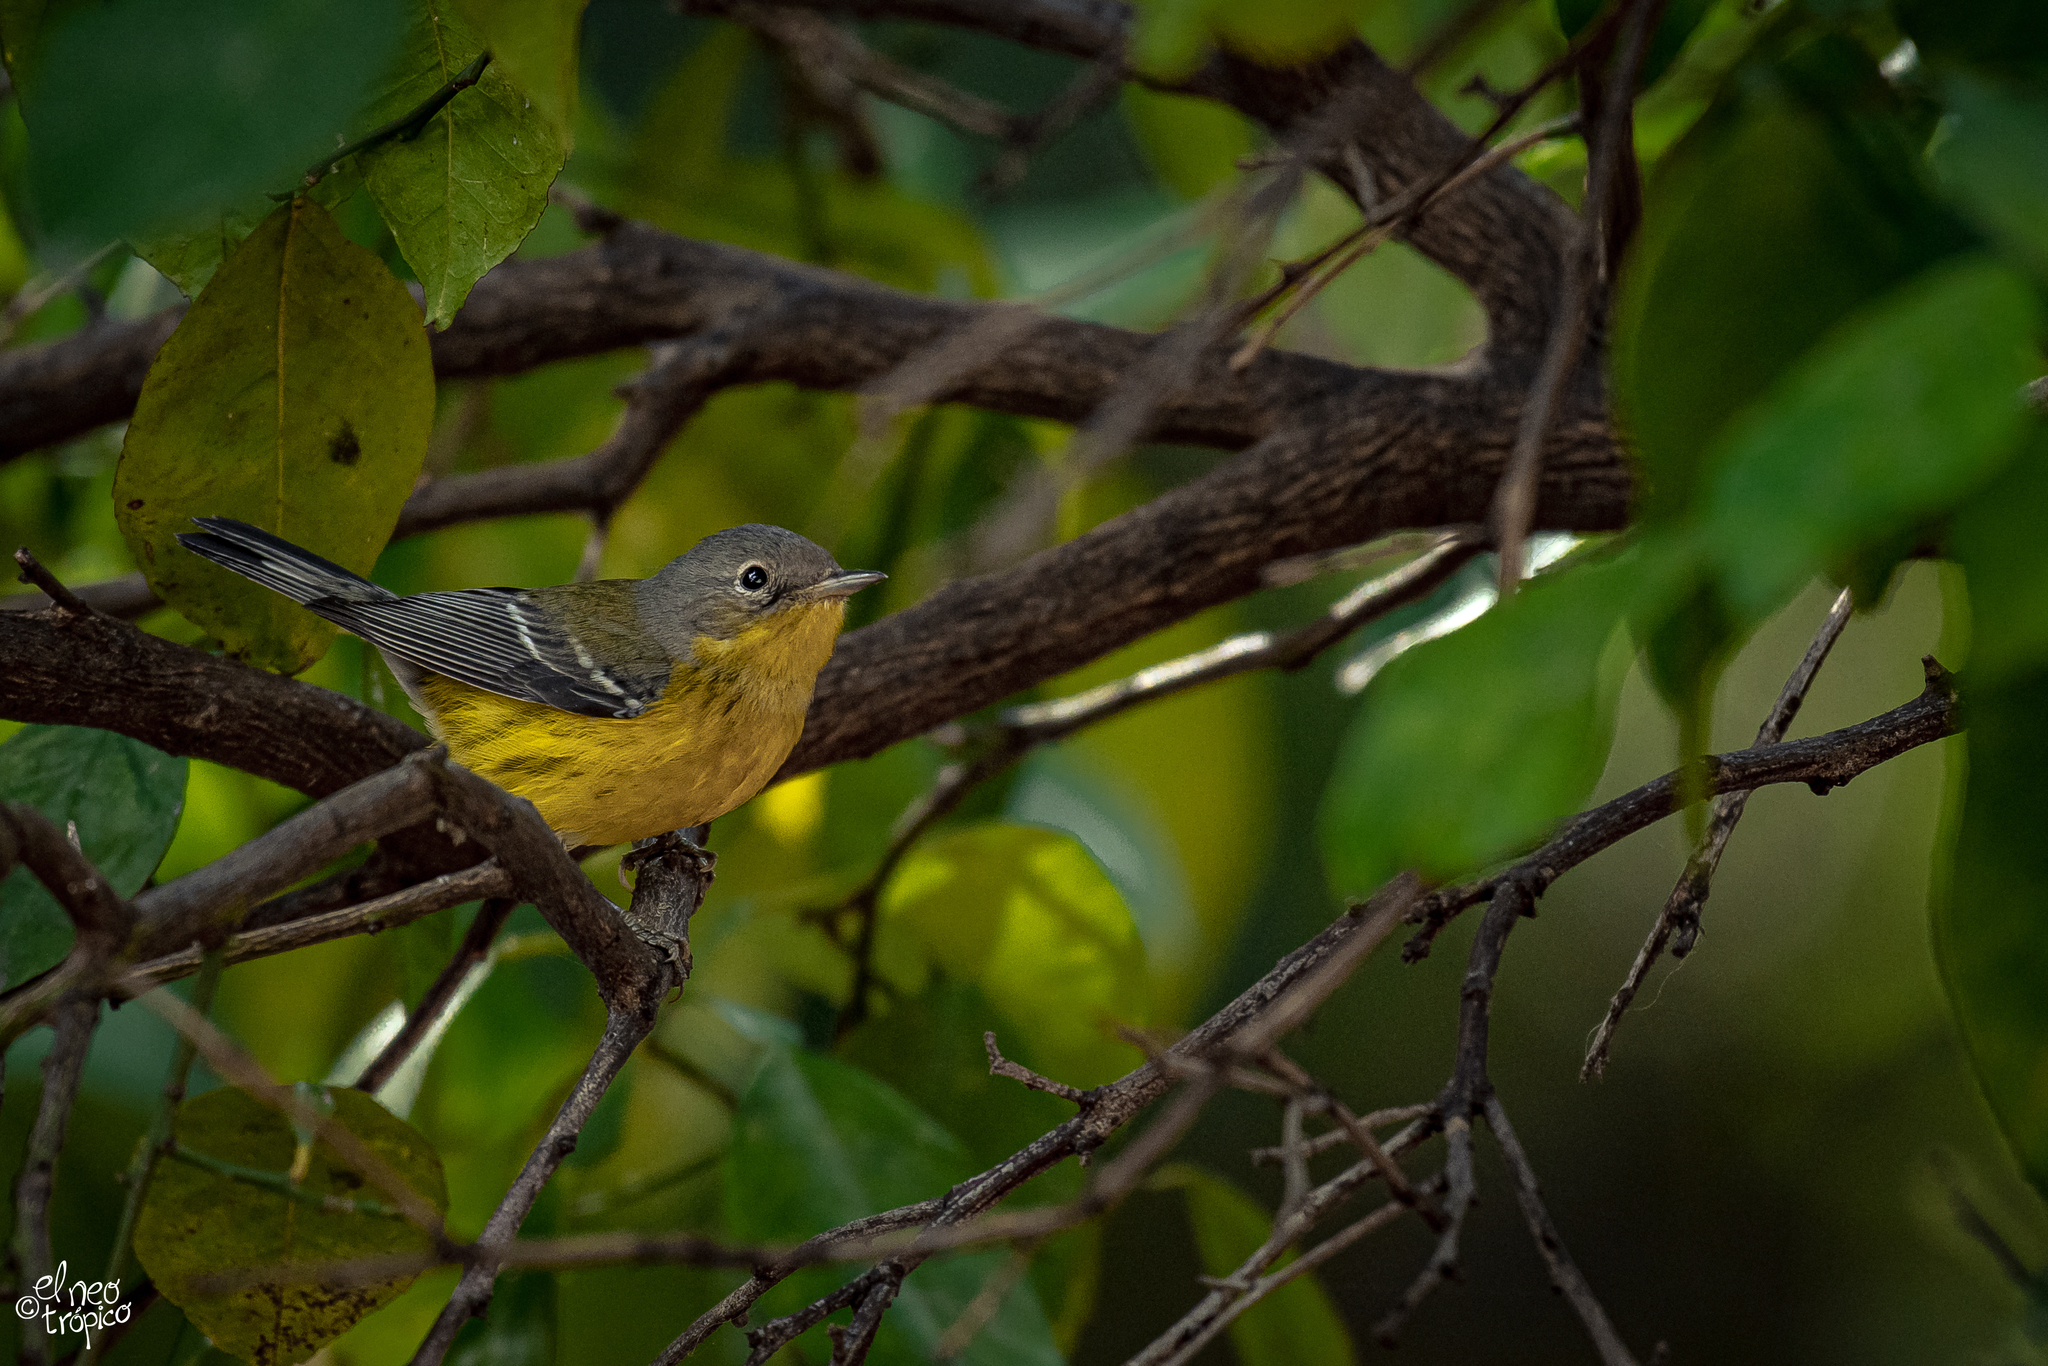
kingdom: Animalia
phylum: Chordata
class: Aves
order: Passeriformes
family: Parulidae
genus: Setophaga
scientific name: Setophaga magnolia
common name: Magnolia warbler
